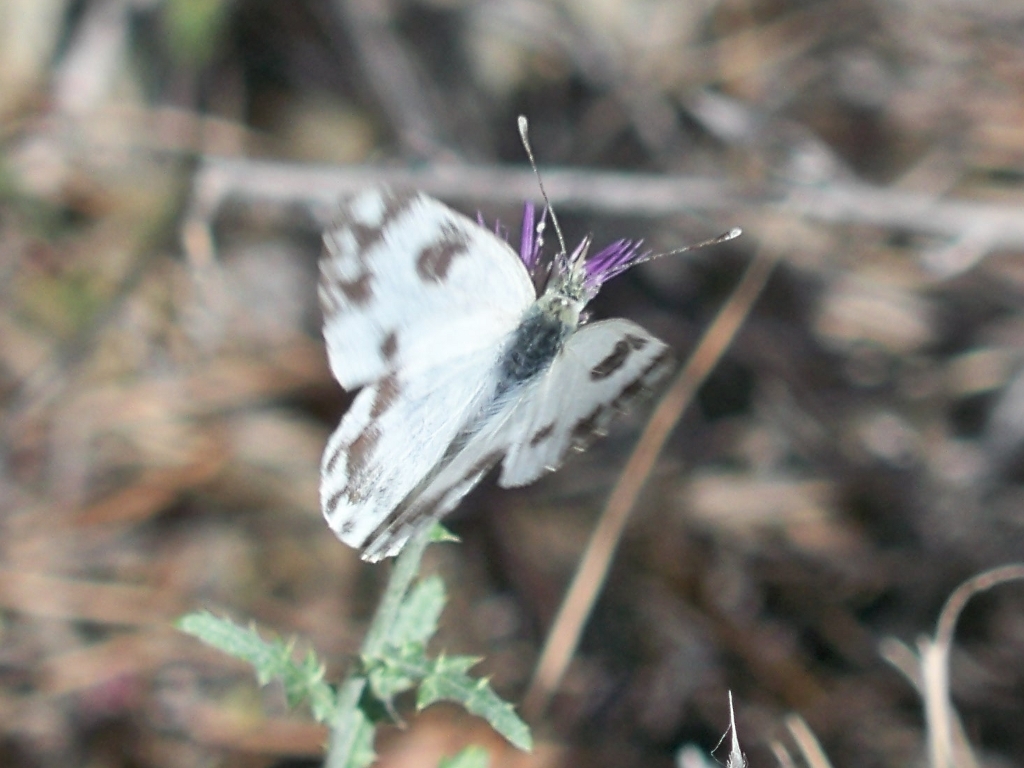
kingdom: Animalia
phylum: Arthropoda
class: Insecta
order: Lepidoptera
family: Pieridae
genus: Pontia
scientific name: Pontia daplidice
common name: Bath white
